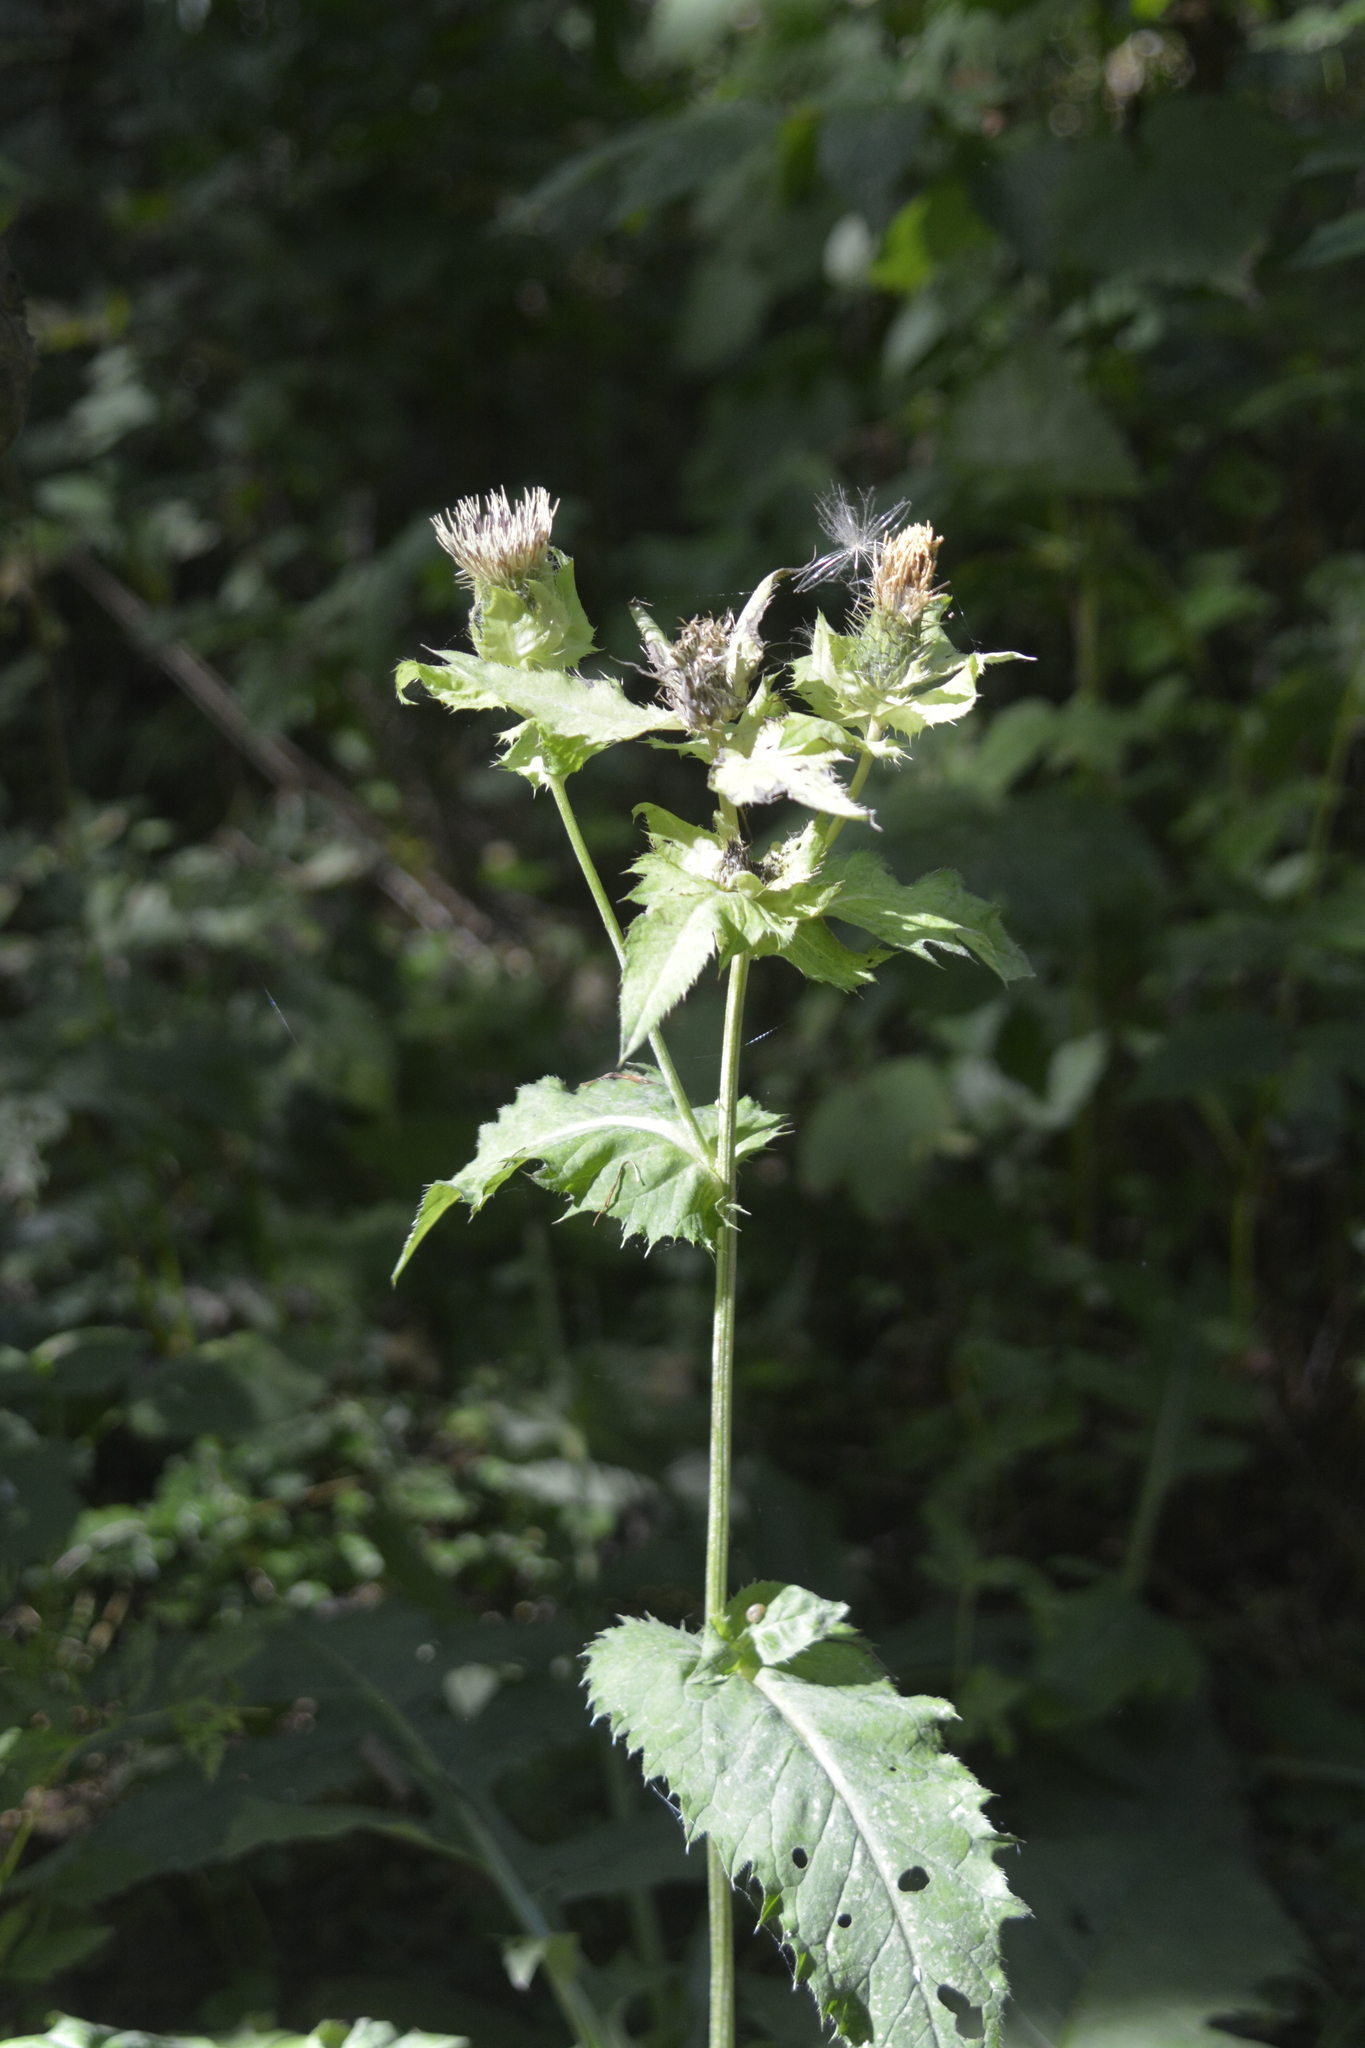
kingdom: Plantae
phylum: Tracheophyta
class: Magnoliopsida
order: Asterales
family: Asteraceae
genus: Cirsium
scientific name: Cirsium oleraceum
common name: Cabbage thistle
